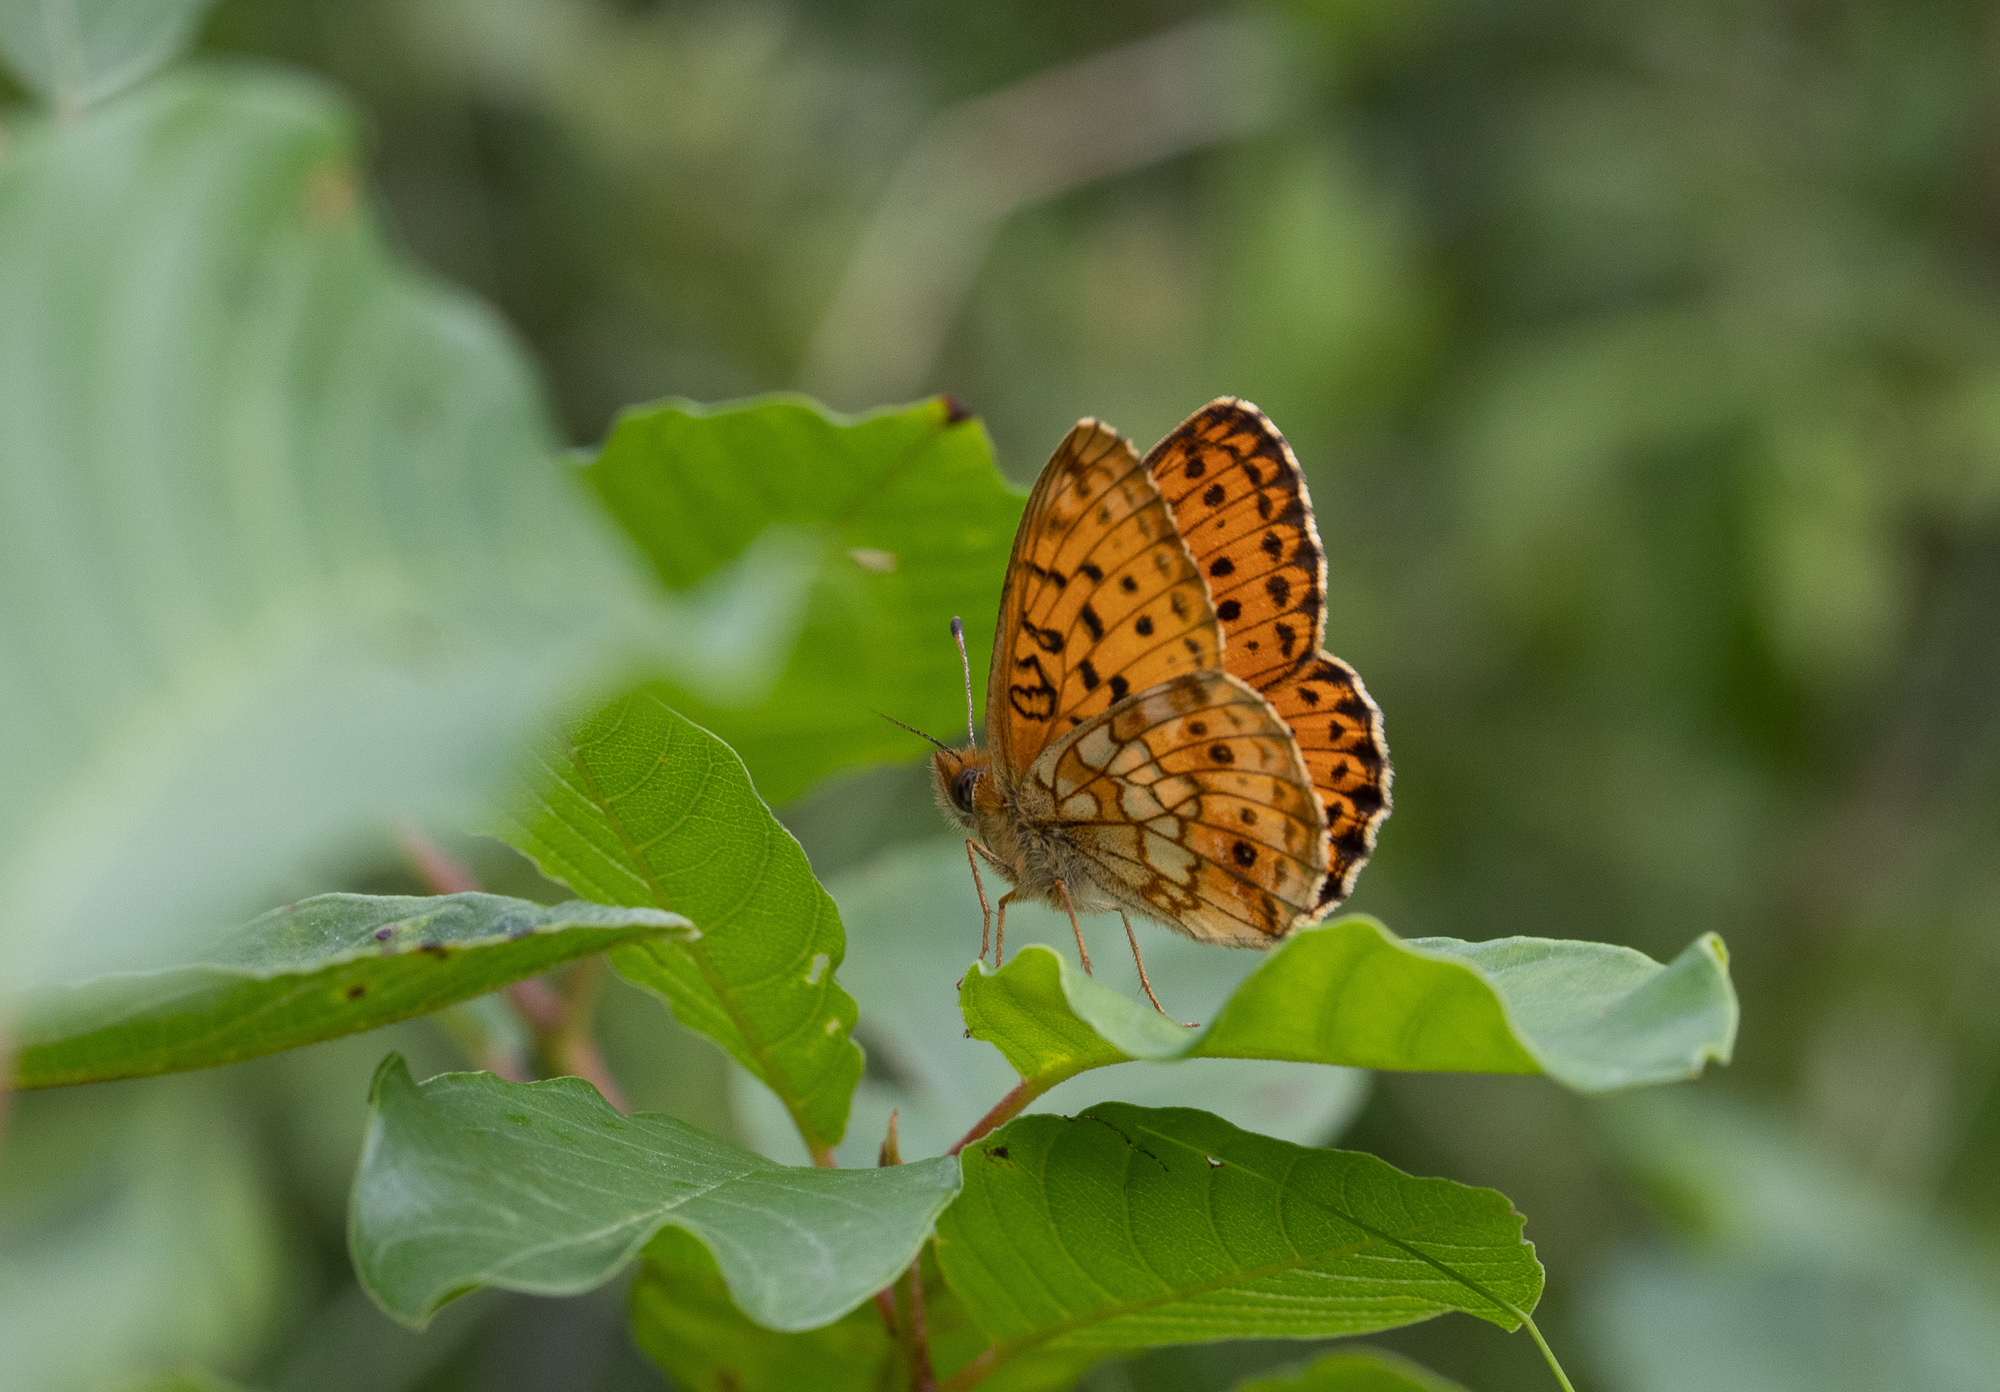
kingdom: Animalia
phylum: Arthropoda
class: Insecta
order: Lepidoptera
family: Nymphalidae
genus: Brenthis
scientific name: Brenthis ino
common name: Lesser marbled fritillary
